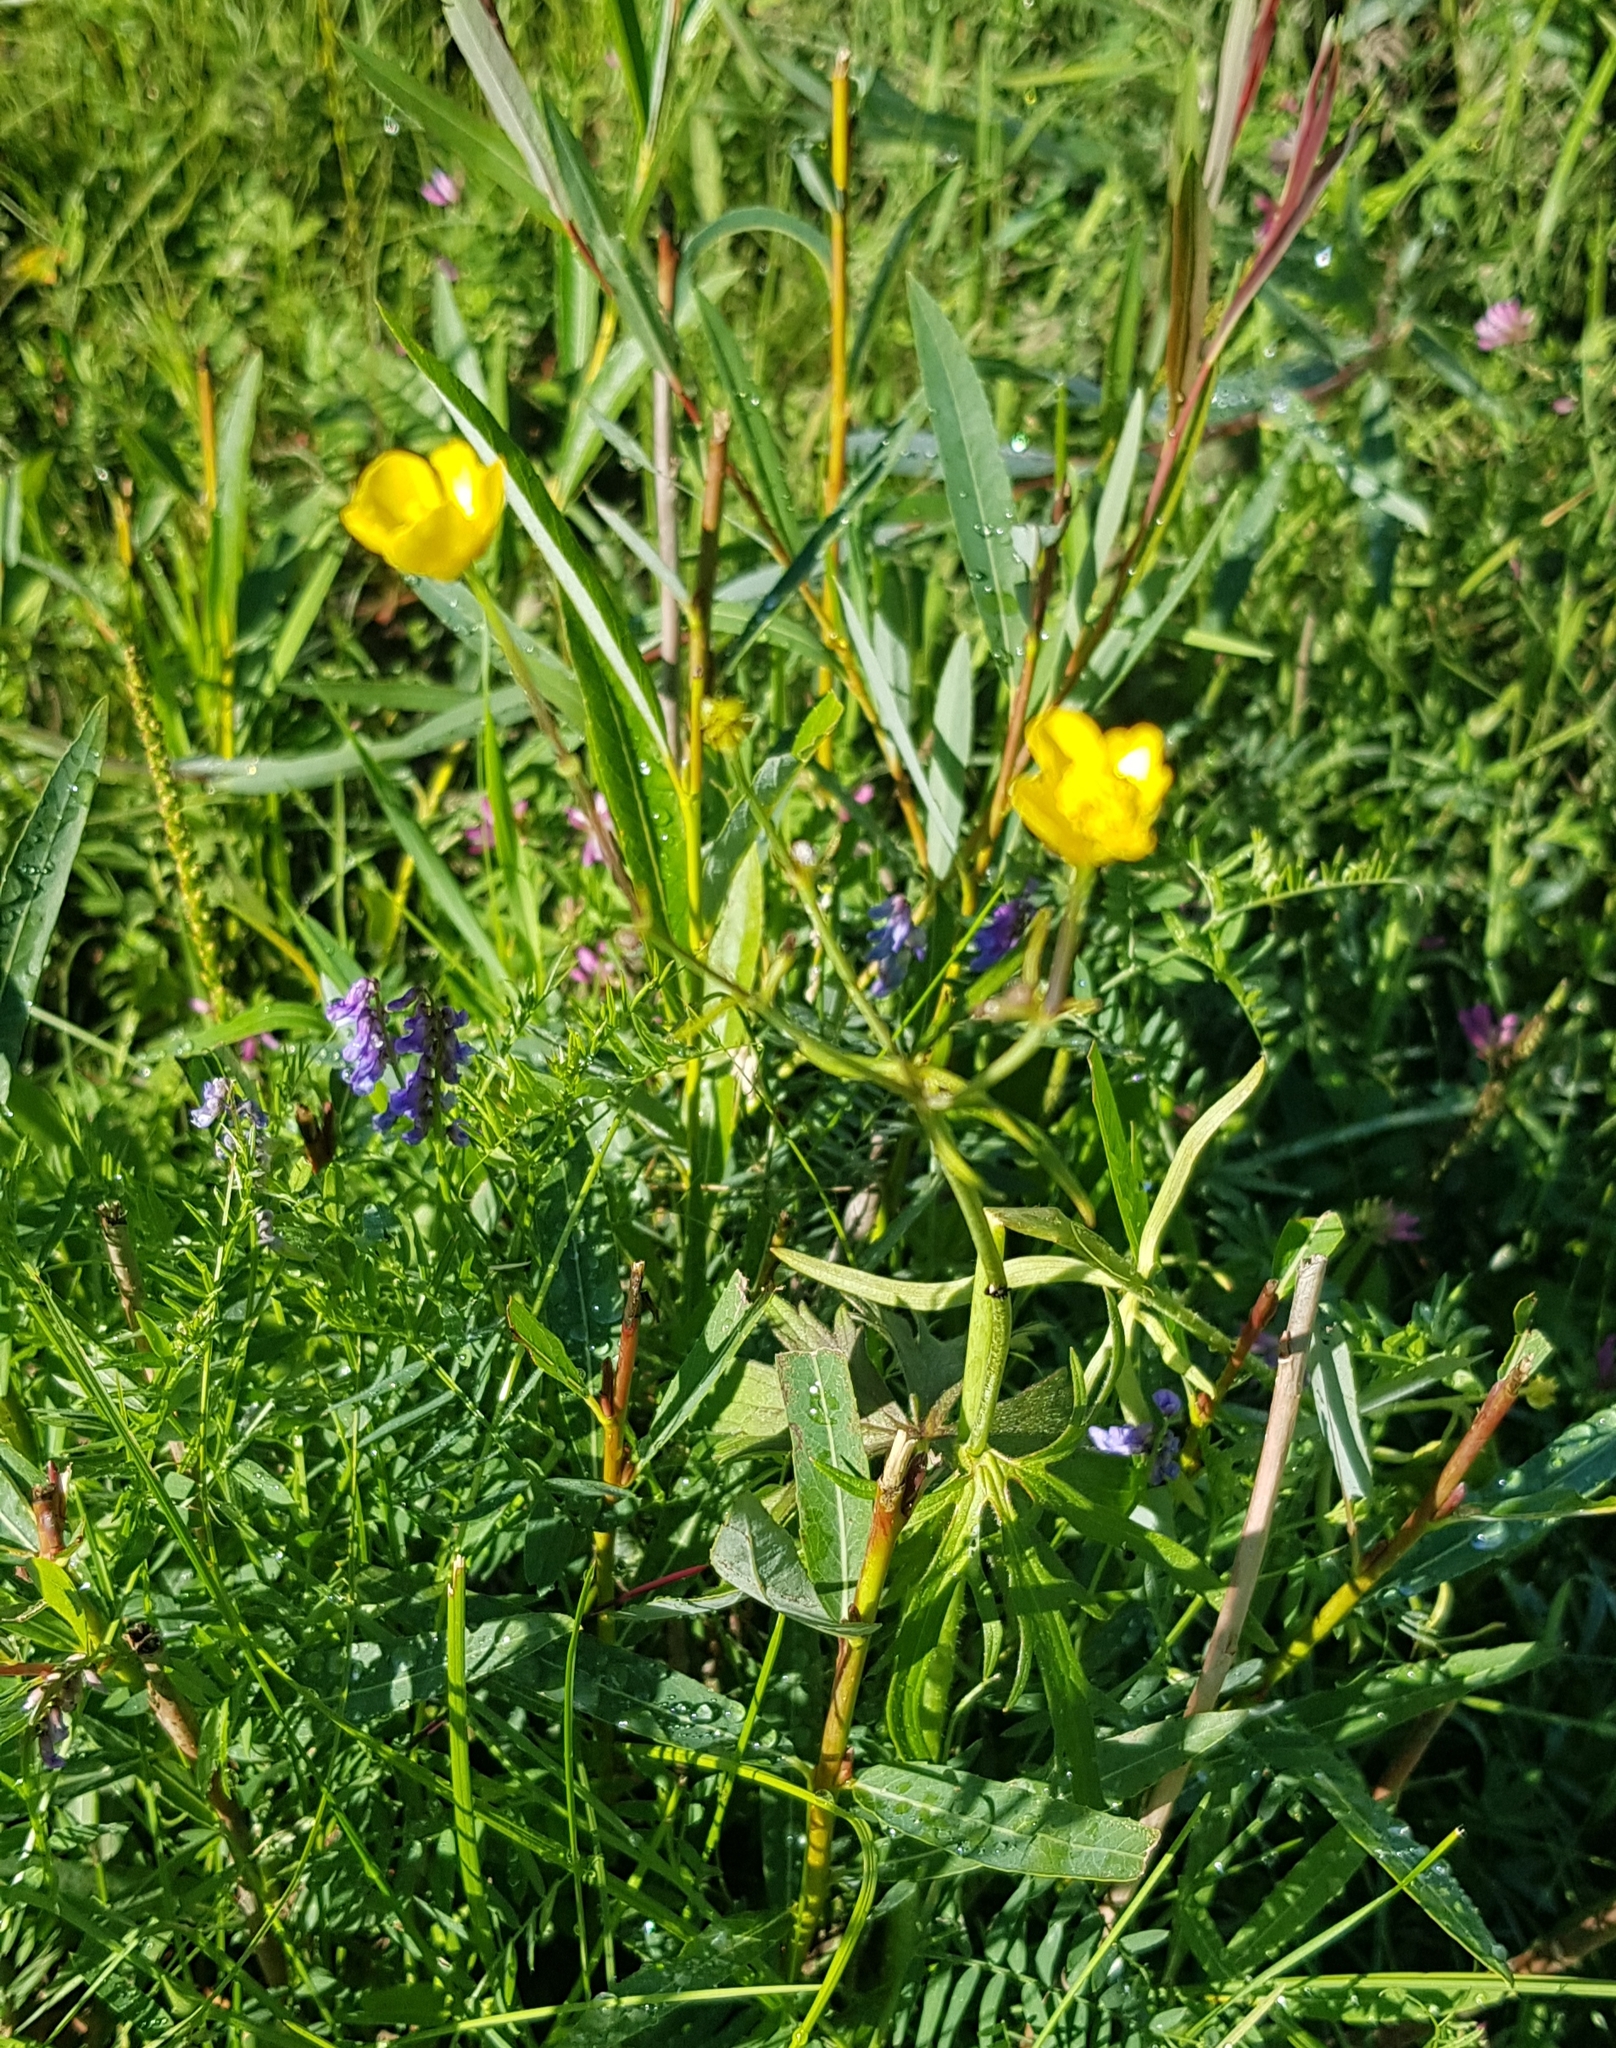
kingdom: Plantae
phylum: Tracheophyta
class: Magnoliopsida
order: Ranunculales
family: Ranunculaceae
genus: Ranunculus
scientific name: Ranunculus acris
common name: Meadow buttercup
